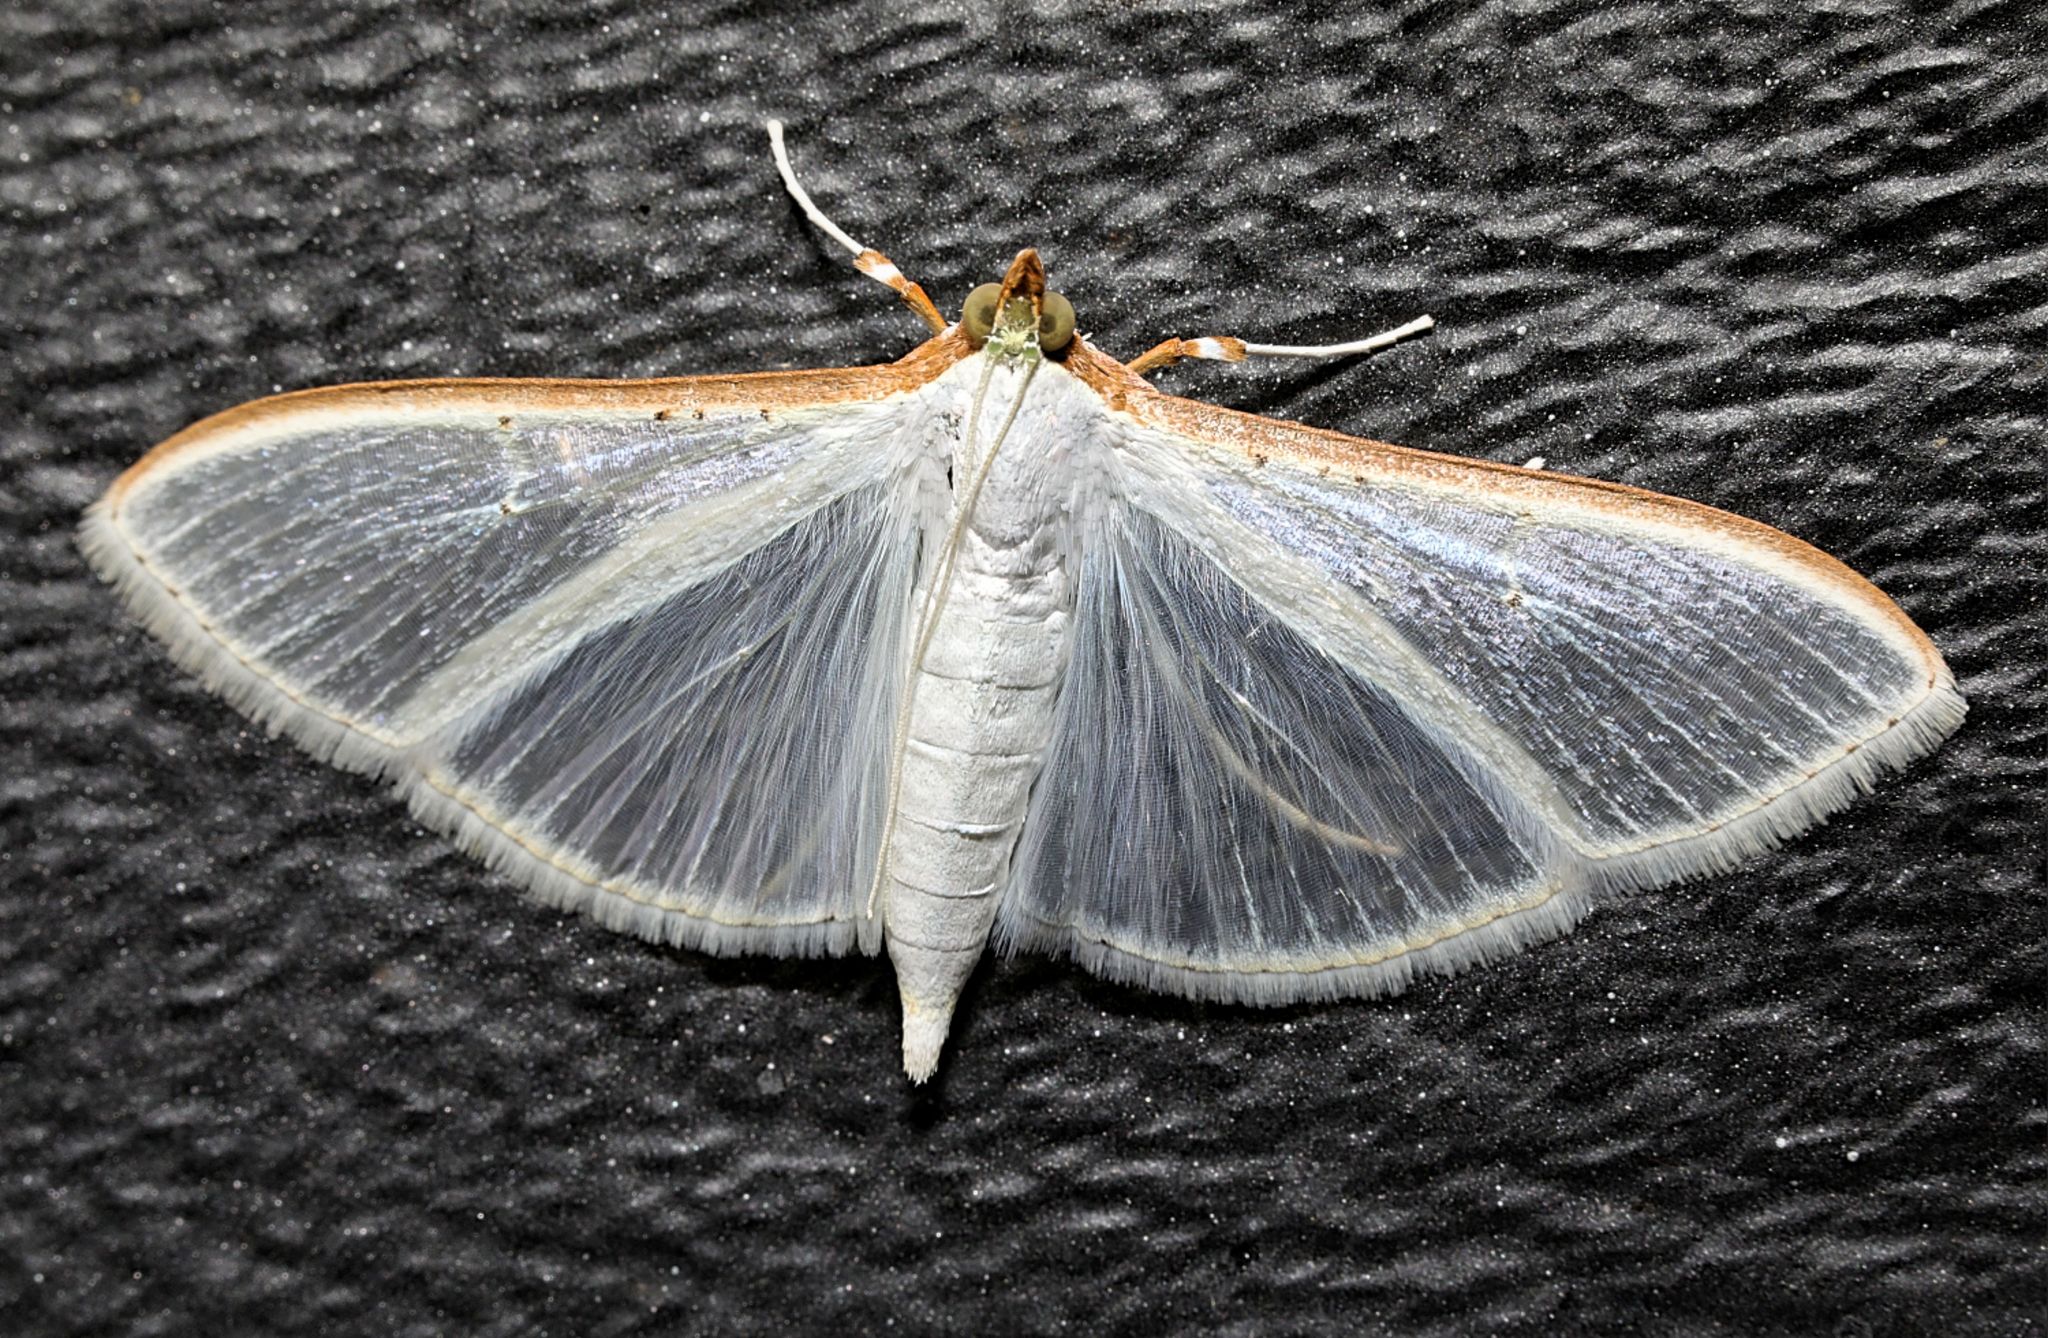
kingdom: Animalia
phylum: Arthropoda
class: Insecta
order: Lepidoptera
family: Crambidae
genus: Palpita
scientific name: Palpita vitrealis
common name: Olive-tree pearl
